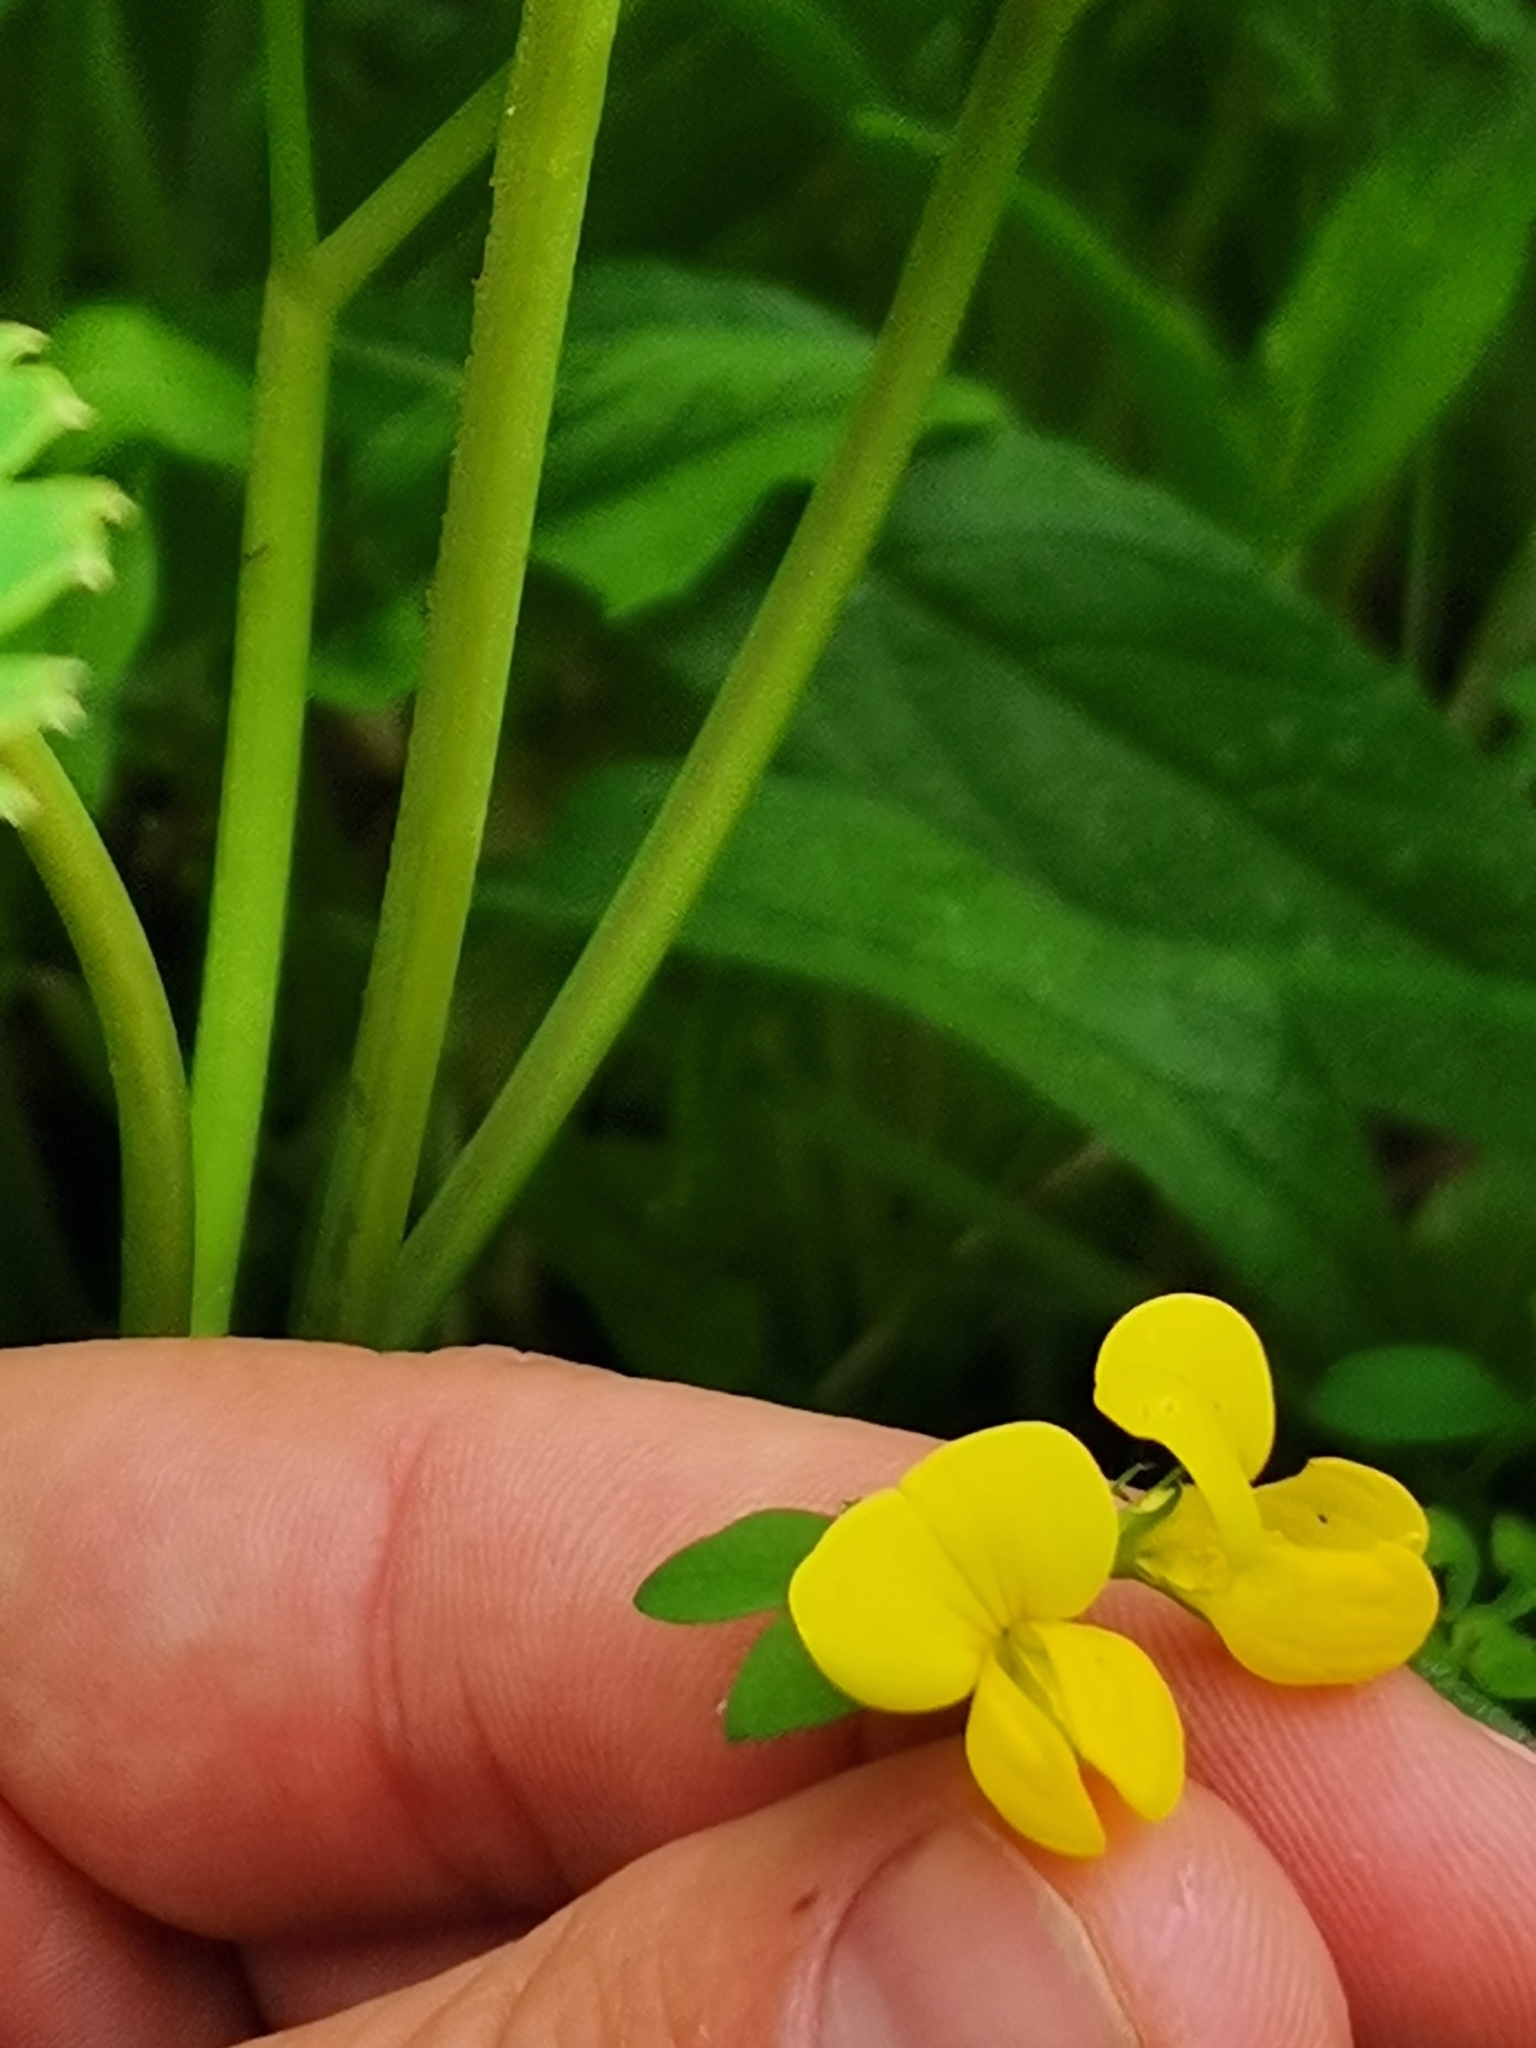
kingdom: Plantae
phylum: Tracheophyta
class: Magnoliopsida
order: Fabales
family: Fabaceae
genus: Lotus
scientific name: Lotus corniculatus
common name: Common bird's-foot-trefoil
